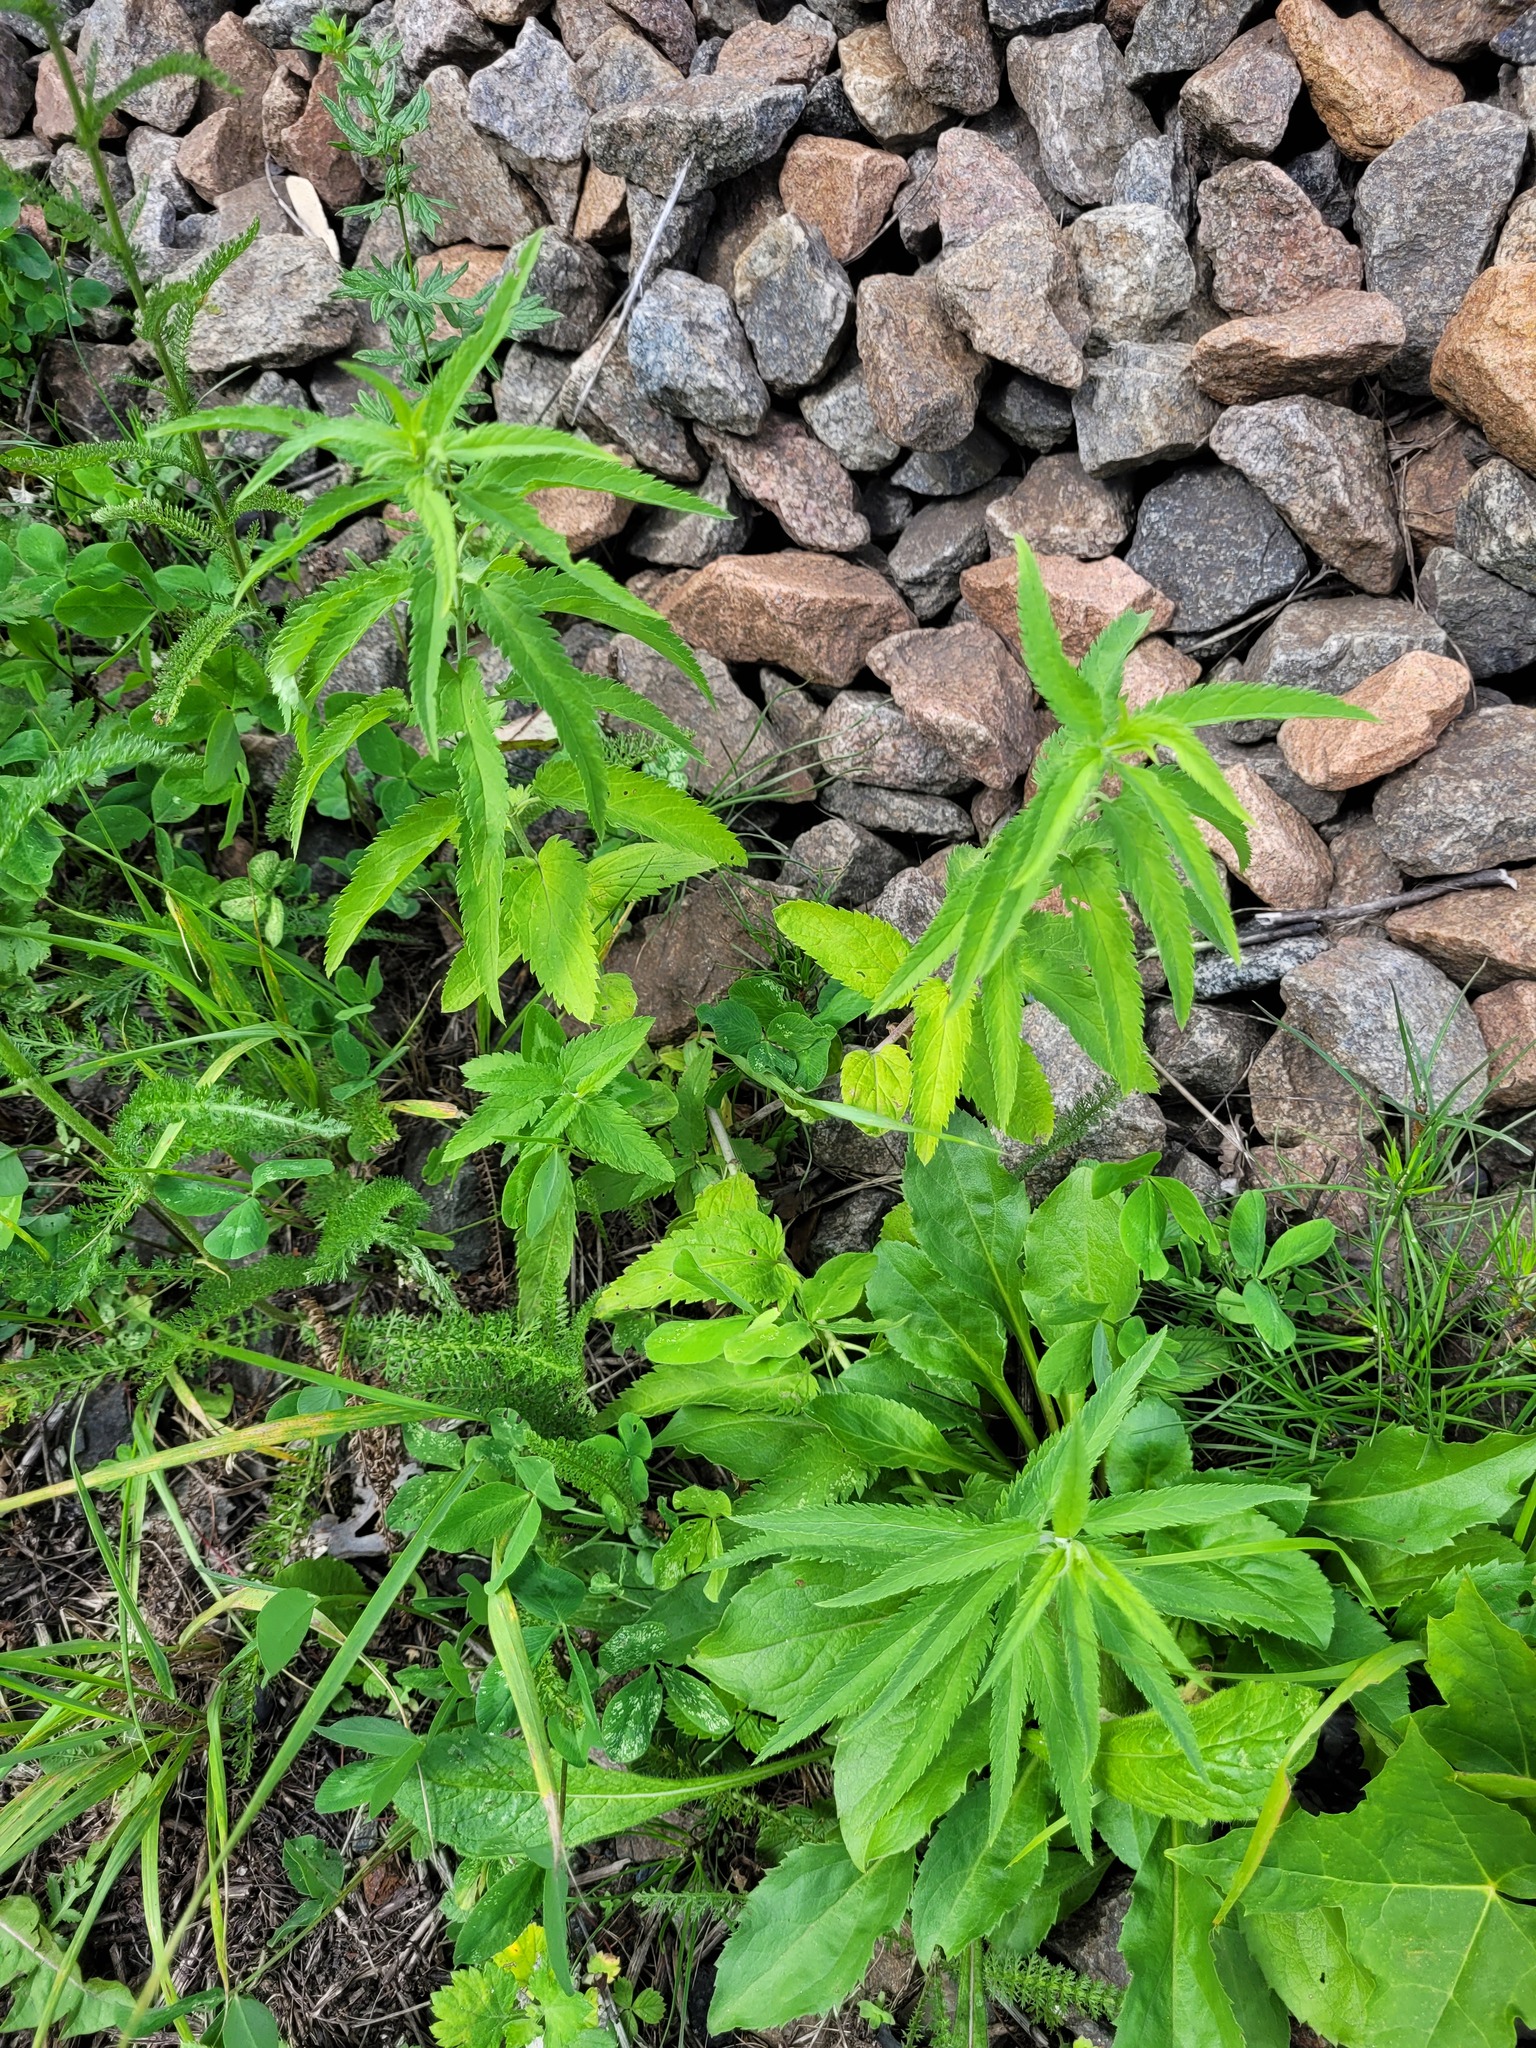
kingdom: Plantae
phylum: Tracheophyta
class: Magnoliopsida
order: Lamiales
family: Plantaginaceae
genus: Veronica
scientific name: Veronica longifolia
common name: Garden speedwell
